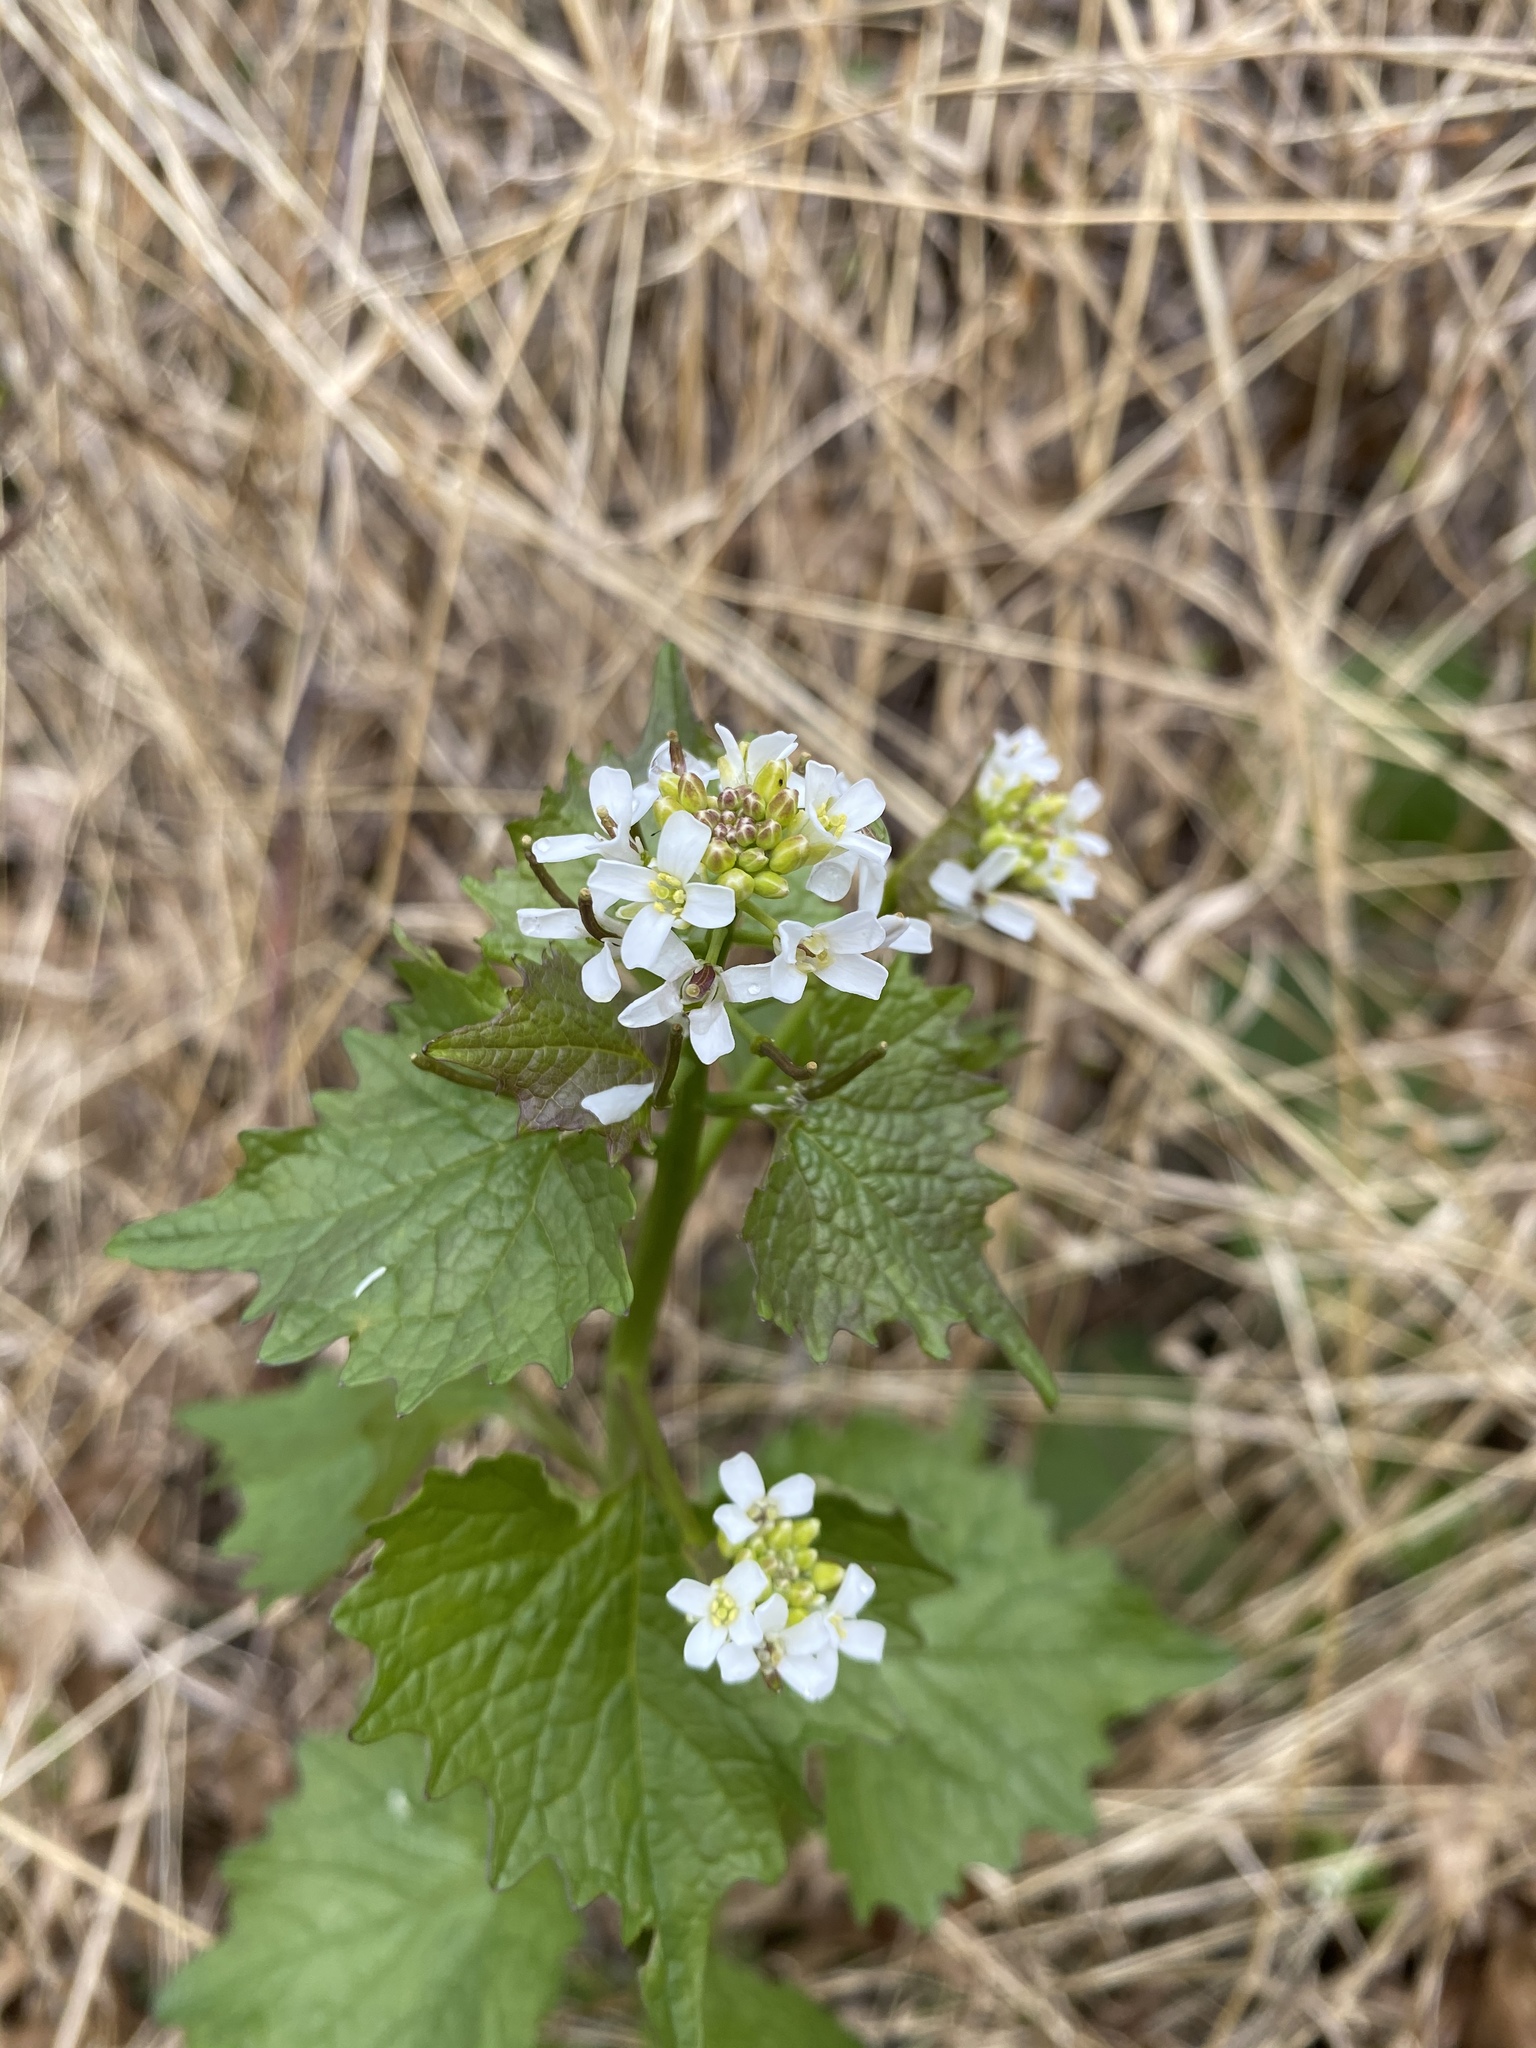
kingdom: Plantae
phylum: Tracheophyta
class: Magnoliopsida
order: Brassicales
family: Brassicaceae
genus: Alliaria
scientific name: Alliaria petiolata
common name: Garlic mustard
